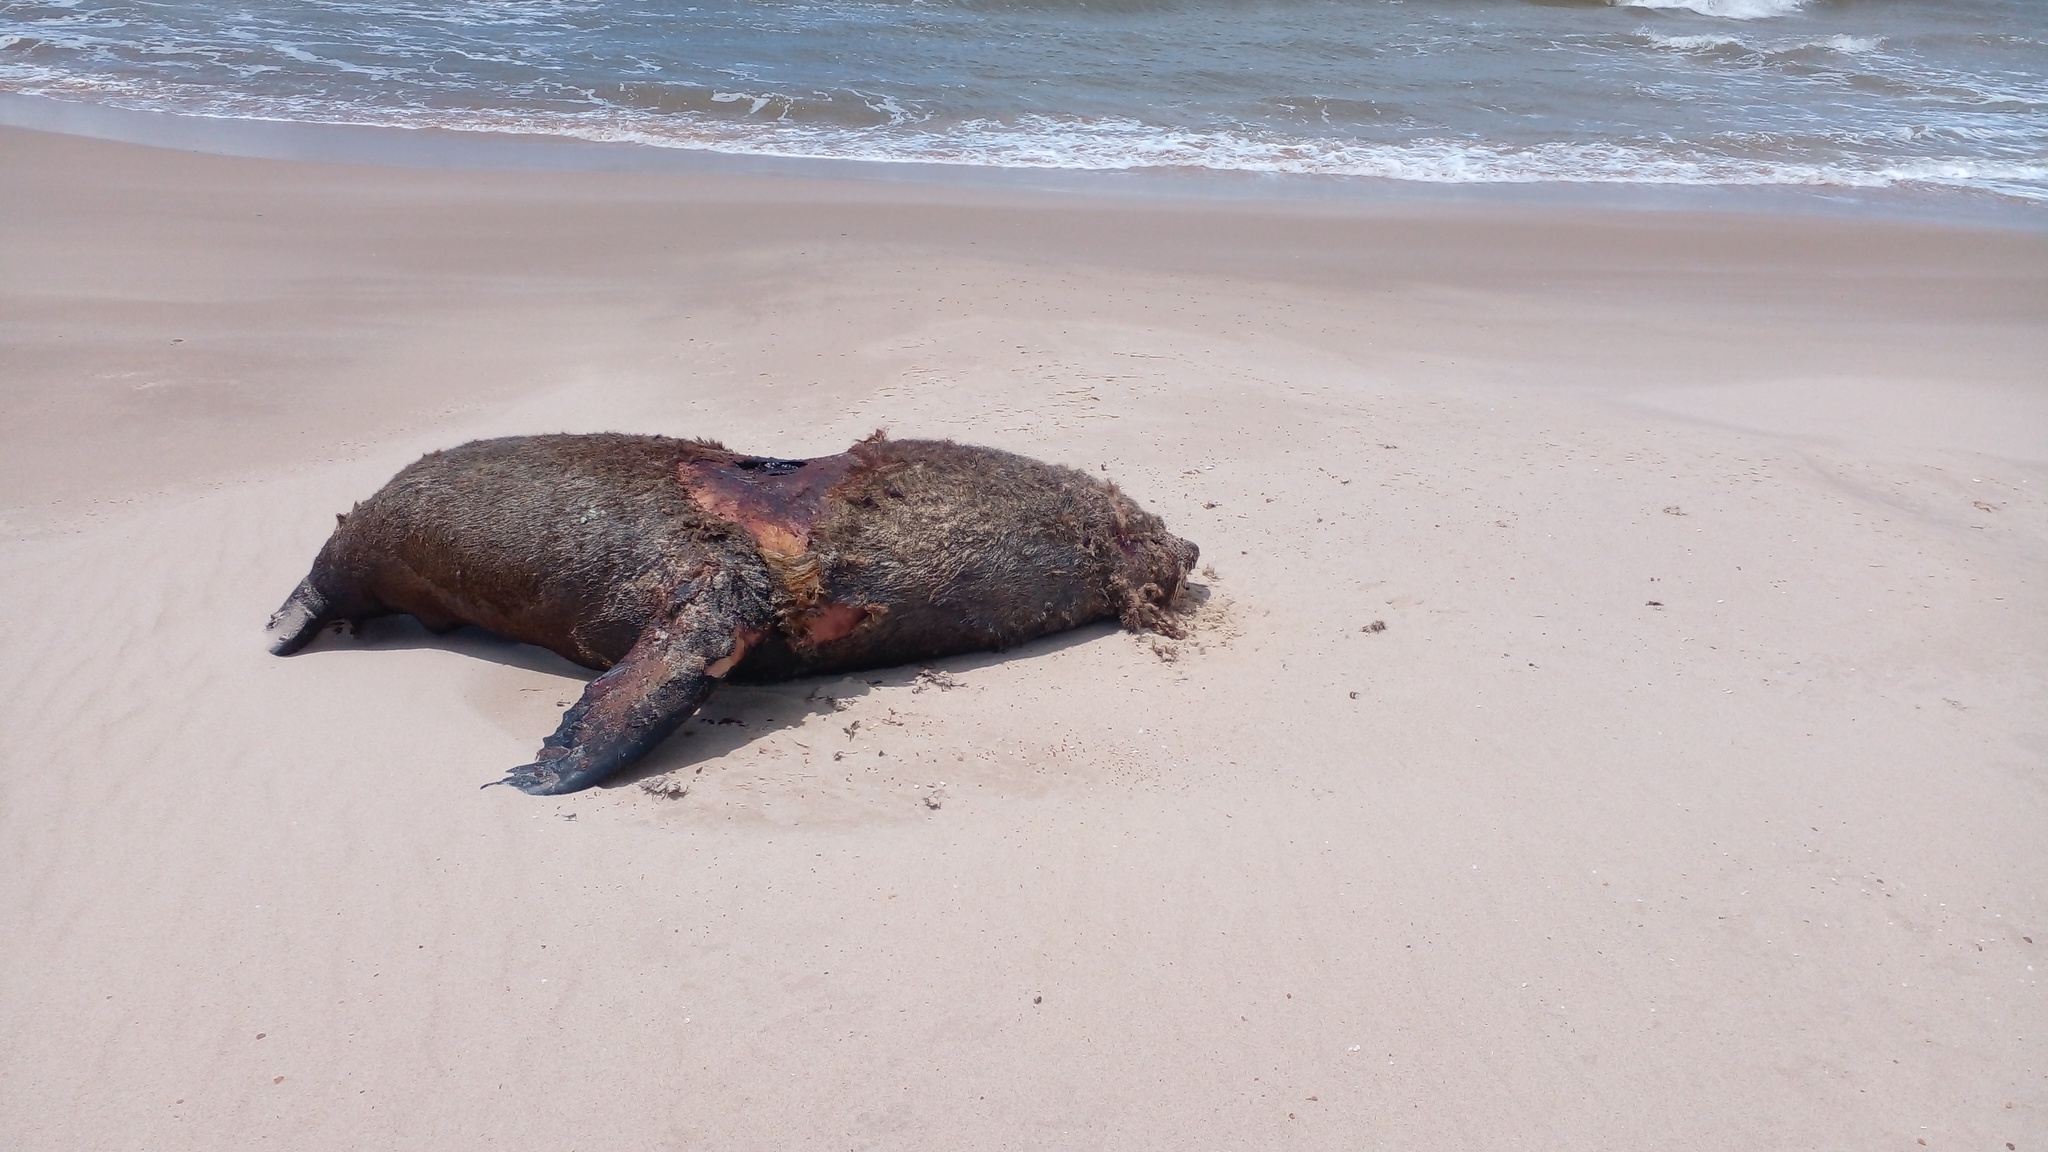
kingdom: Animalia
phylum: Chordata
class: Mammalia
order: Carnivora
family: Otariidae
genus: Arctocephalus
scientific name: Arctocephalus australis
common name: South american fur seal
